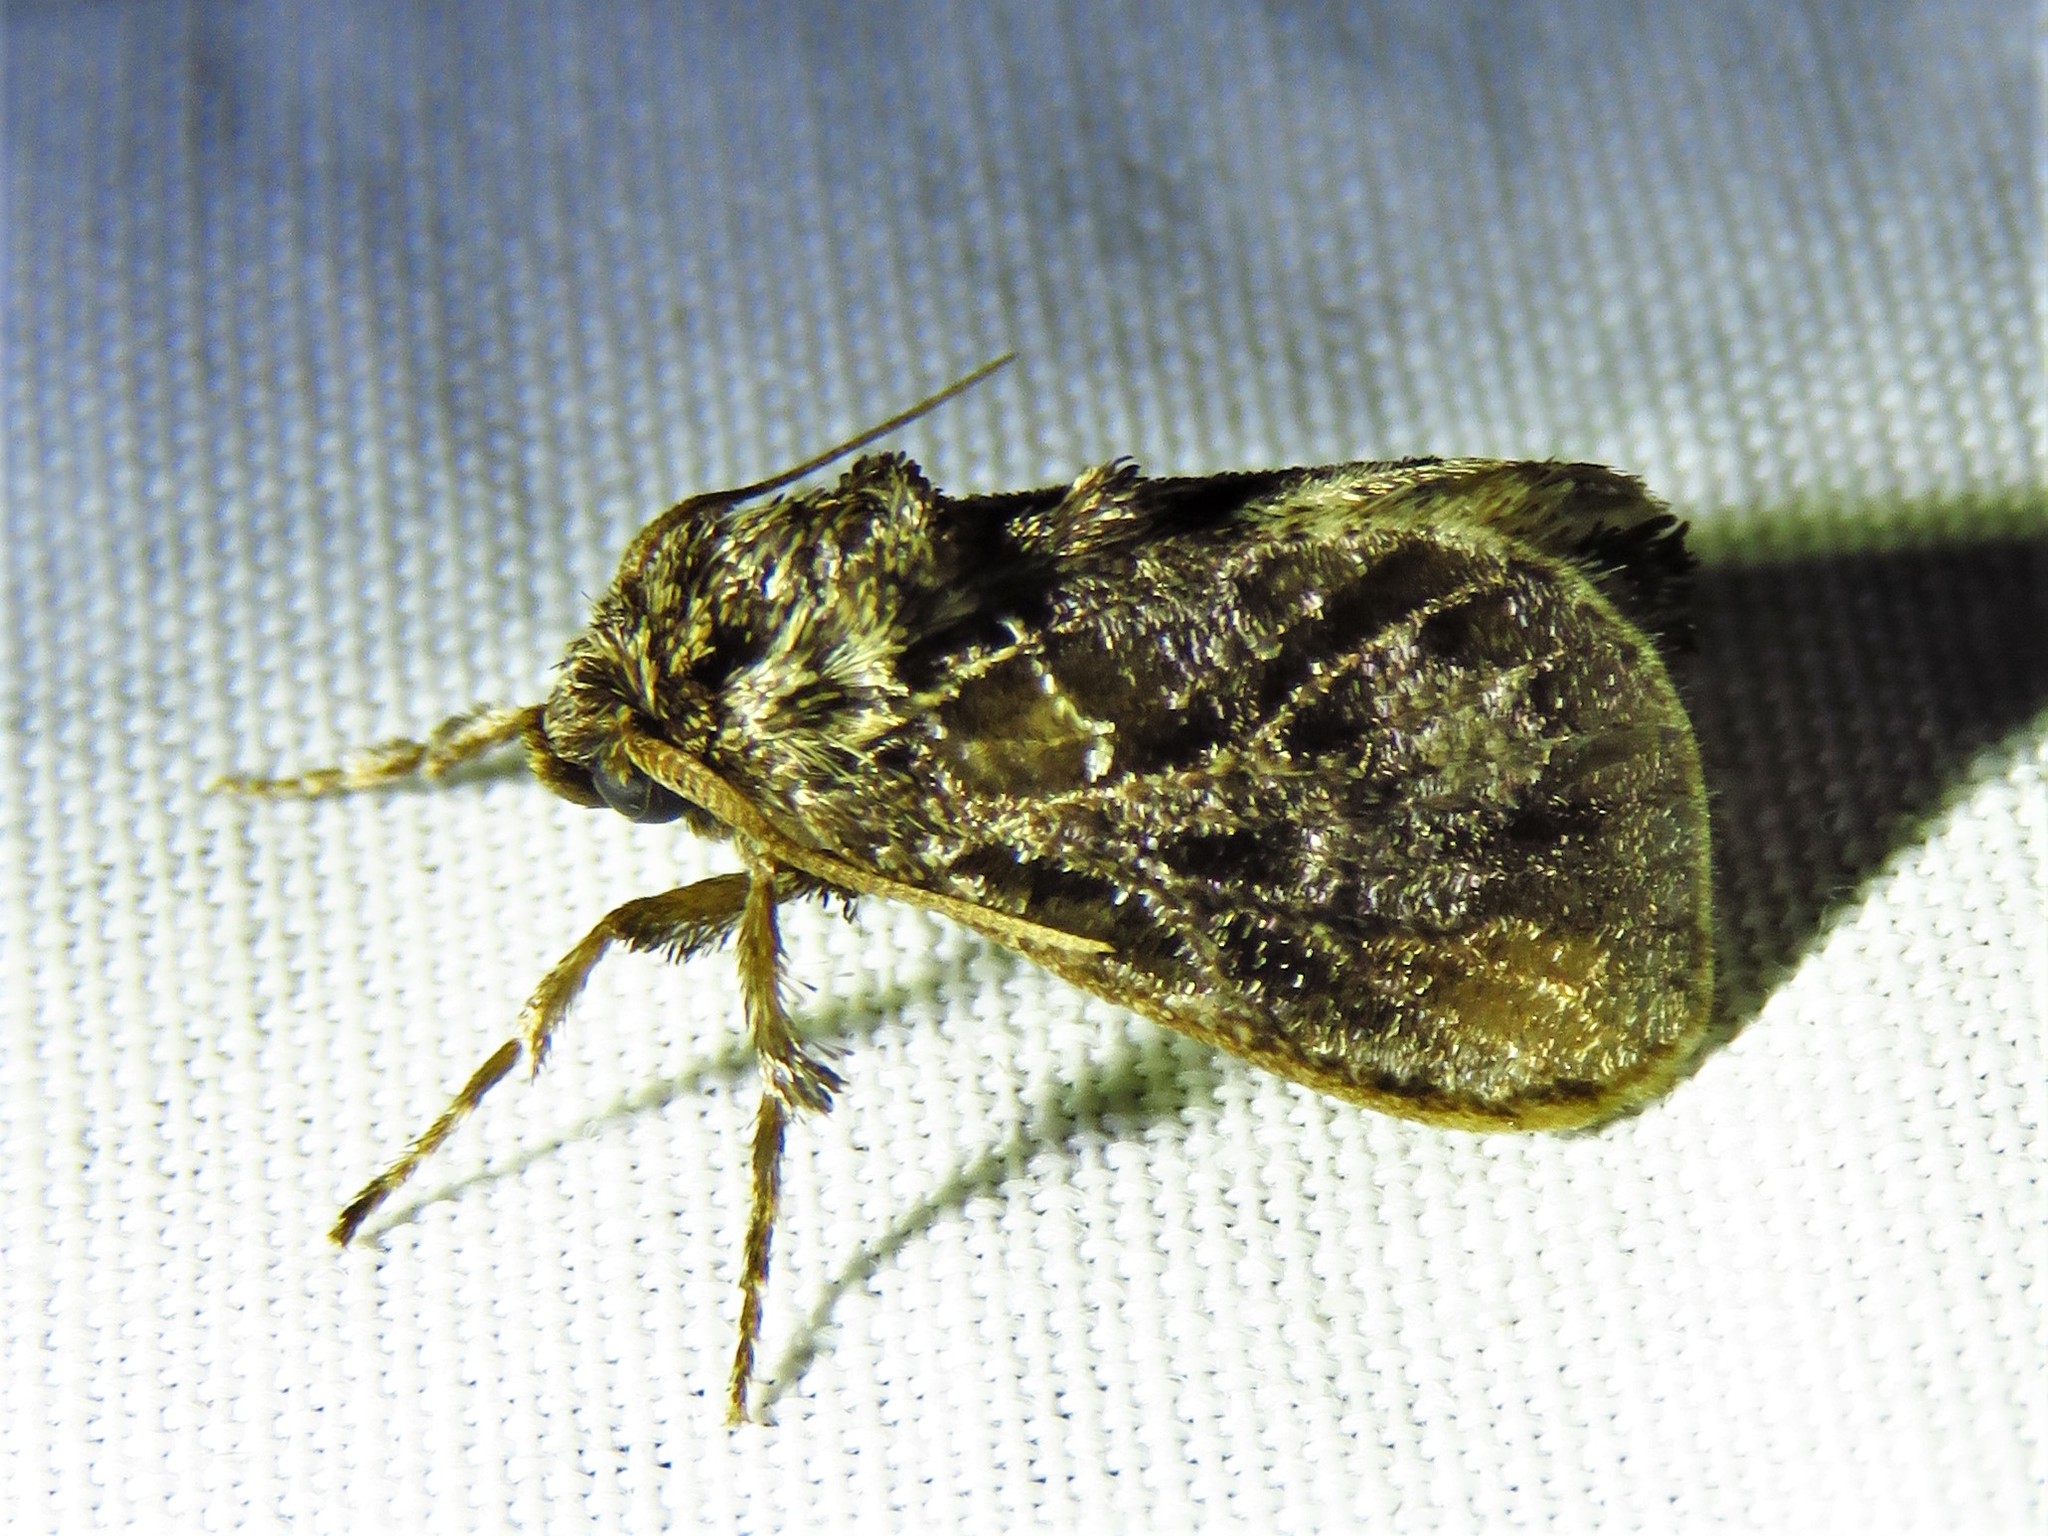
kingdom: Animalia
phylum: Arthropoda
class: Insecta
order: Lepidoptera
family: Limacodidae
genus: Euclea
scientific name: Euclea plugma
